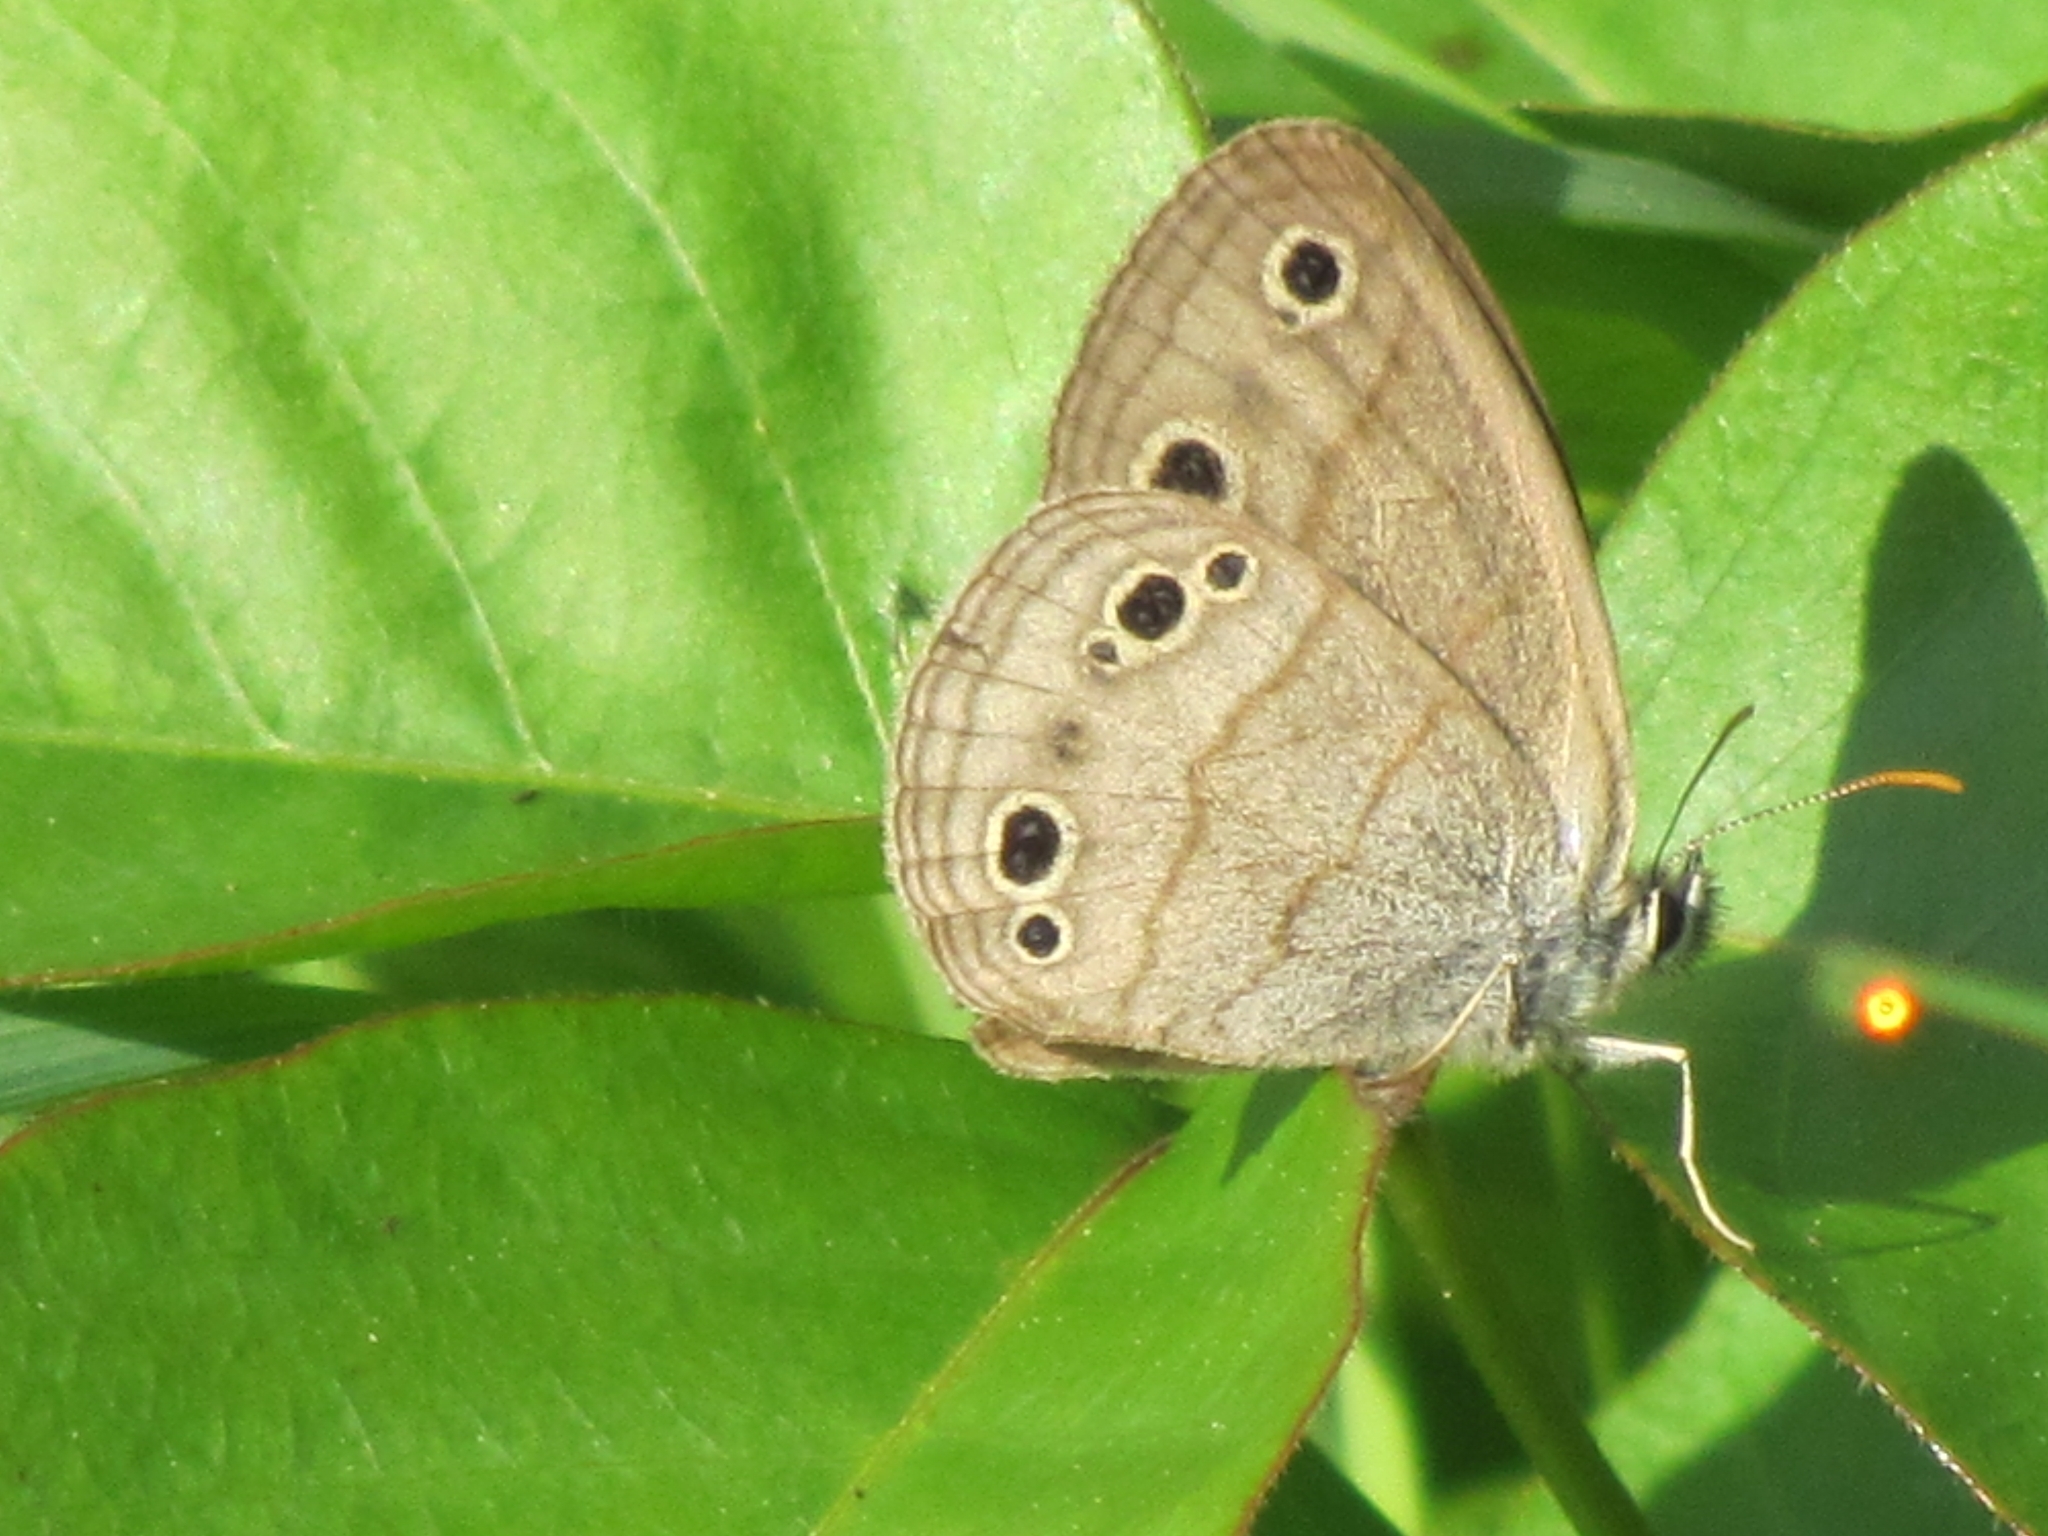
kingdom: Animalia
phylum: Arthropoda
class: Insecta
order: Lepidoptera
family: Nymphalidae
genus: Euptychia
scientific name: Euptychia cymela
